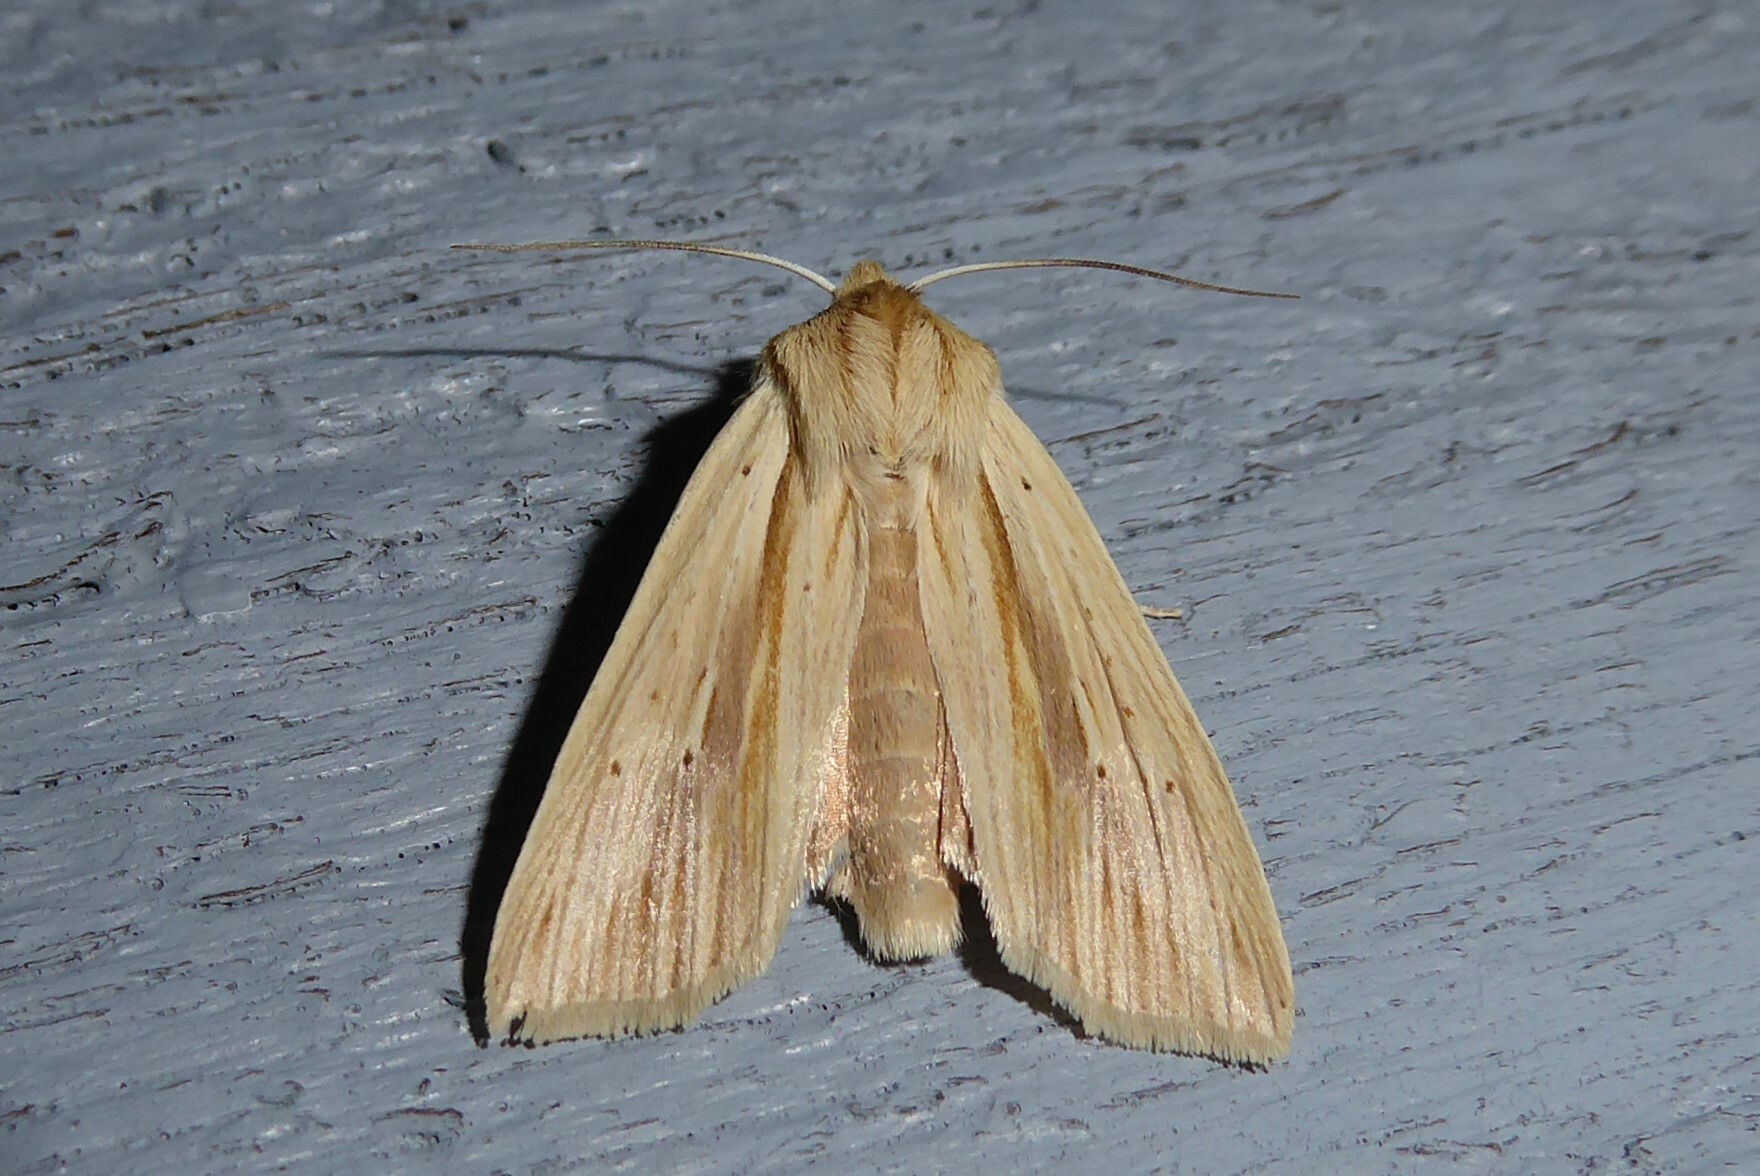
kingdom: Animalia
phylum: Arthropoda
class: Insecta
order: Lepidoptera
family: Noctuidae
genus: Ichneutica
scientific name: Ichneutica semivittata
